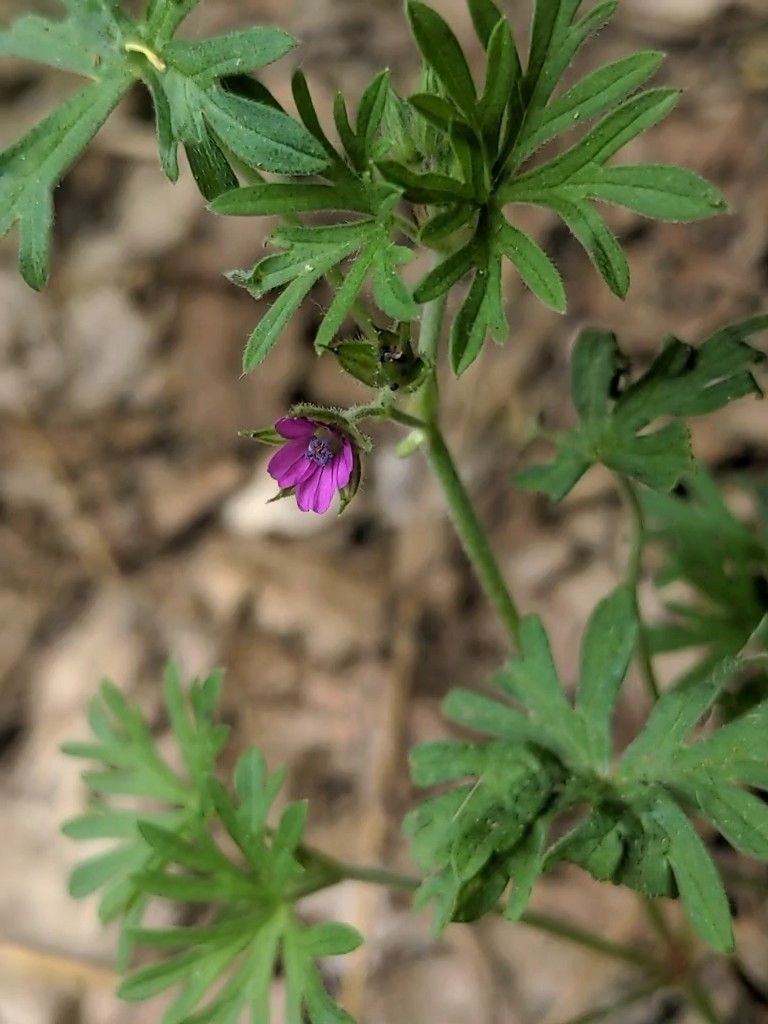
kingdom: Plantae
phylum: Tracheophyta
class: Magnoliopsida
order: Geraniales
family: Geraniaceae
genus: Geranium
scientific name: Geranium dissectum
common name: Cut-leaved crane's-bill
